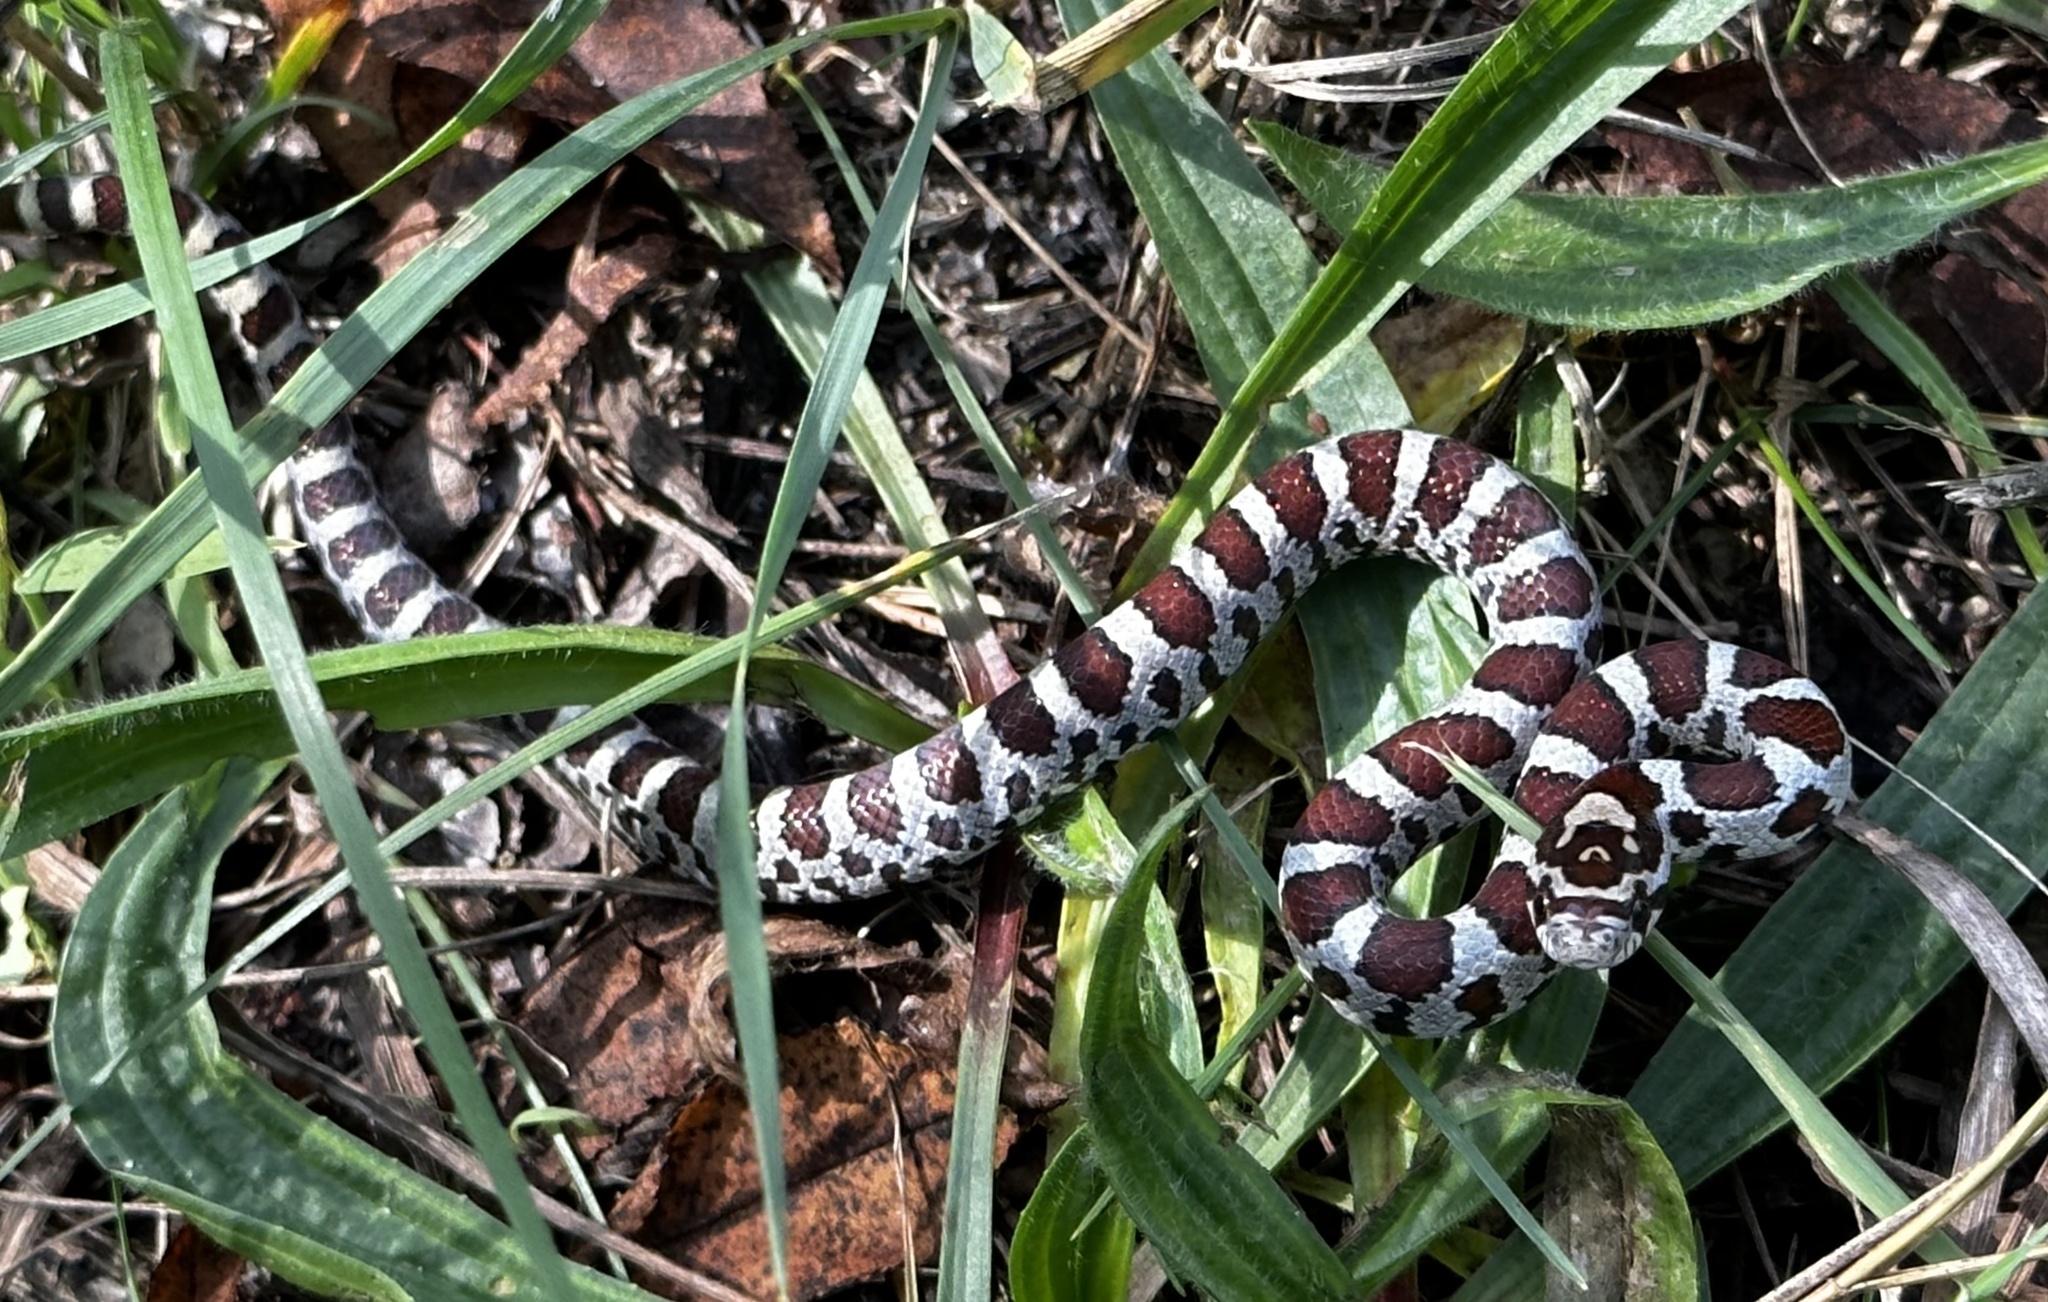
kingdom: Animalia
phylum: Chordata
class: Squamata
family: Colubridae
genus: Lampropeltis
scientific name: Lampropeltis triangulum
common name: Eastern milksnake
